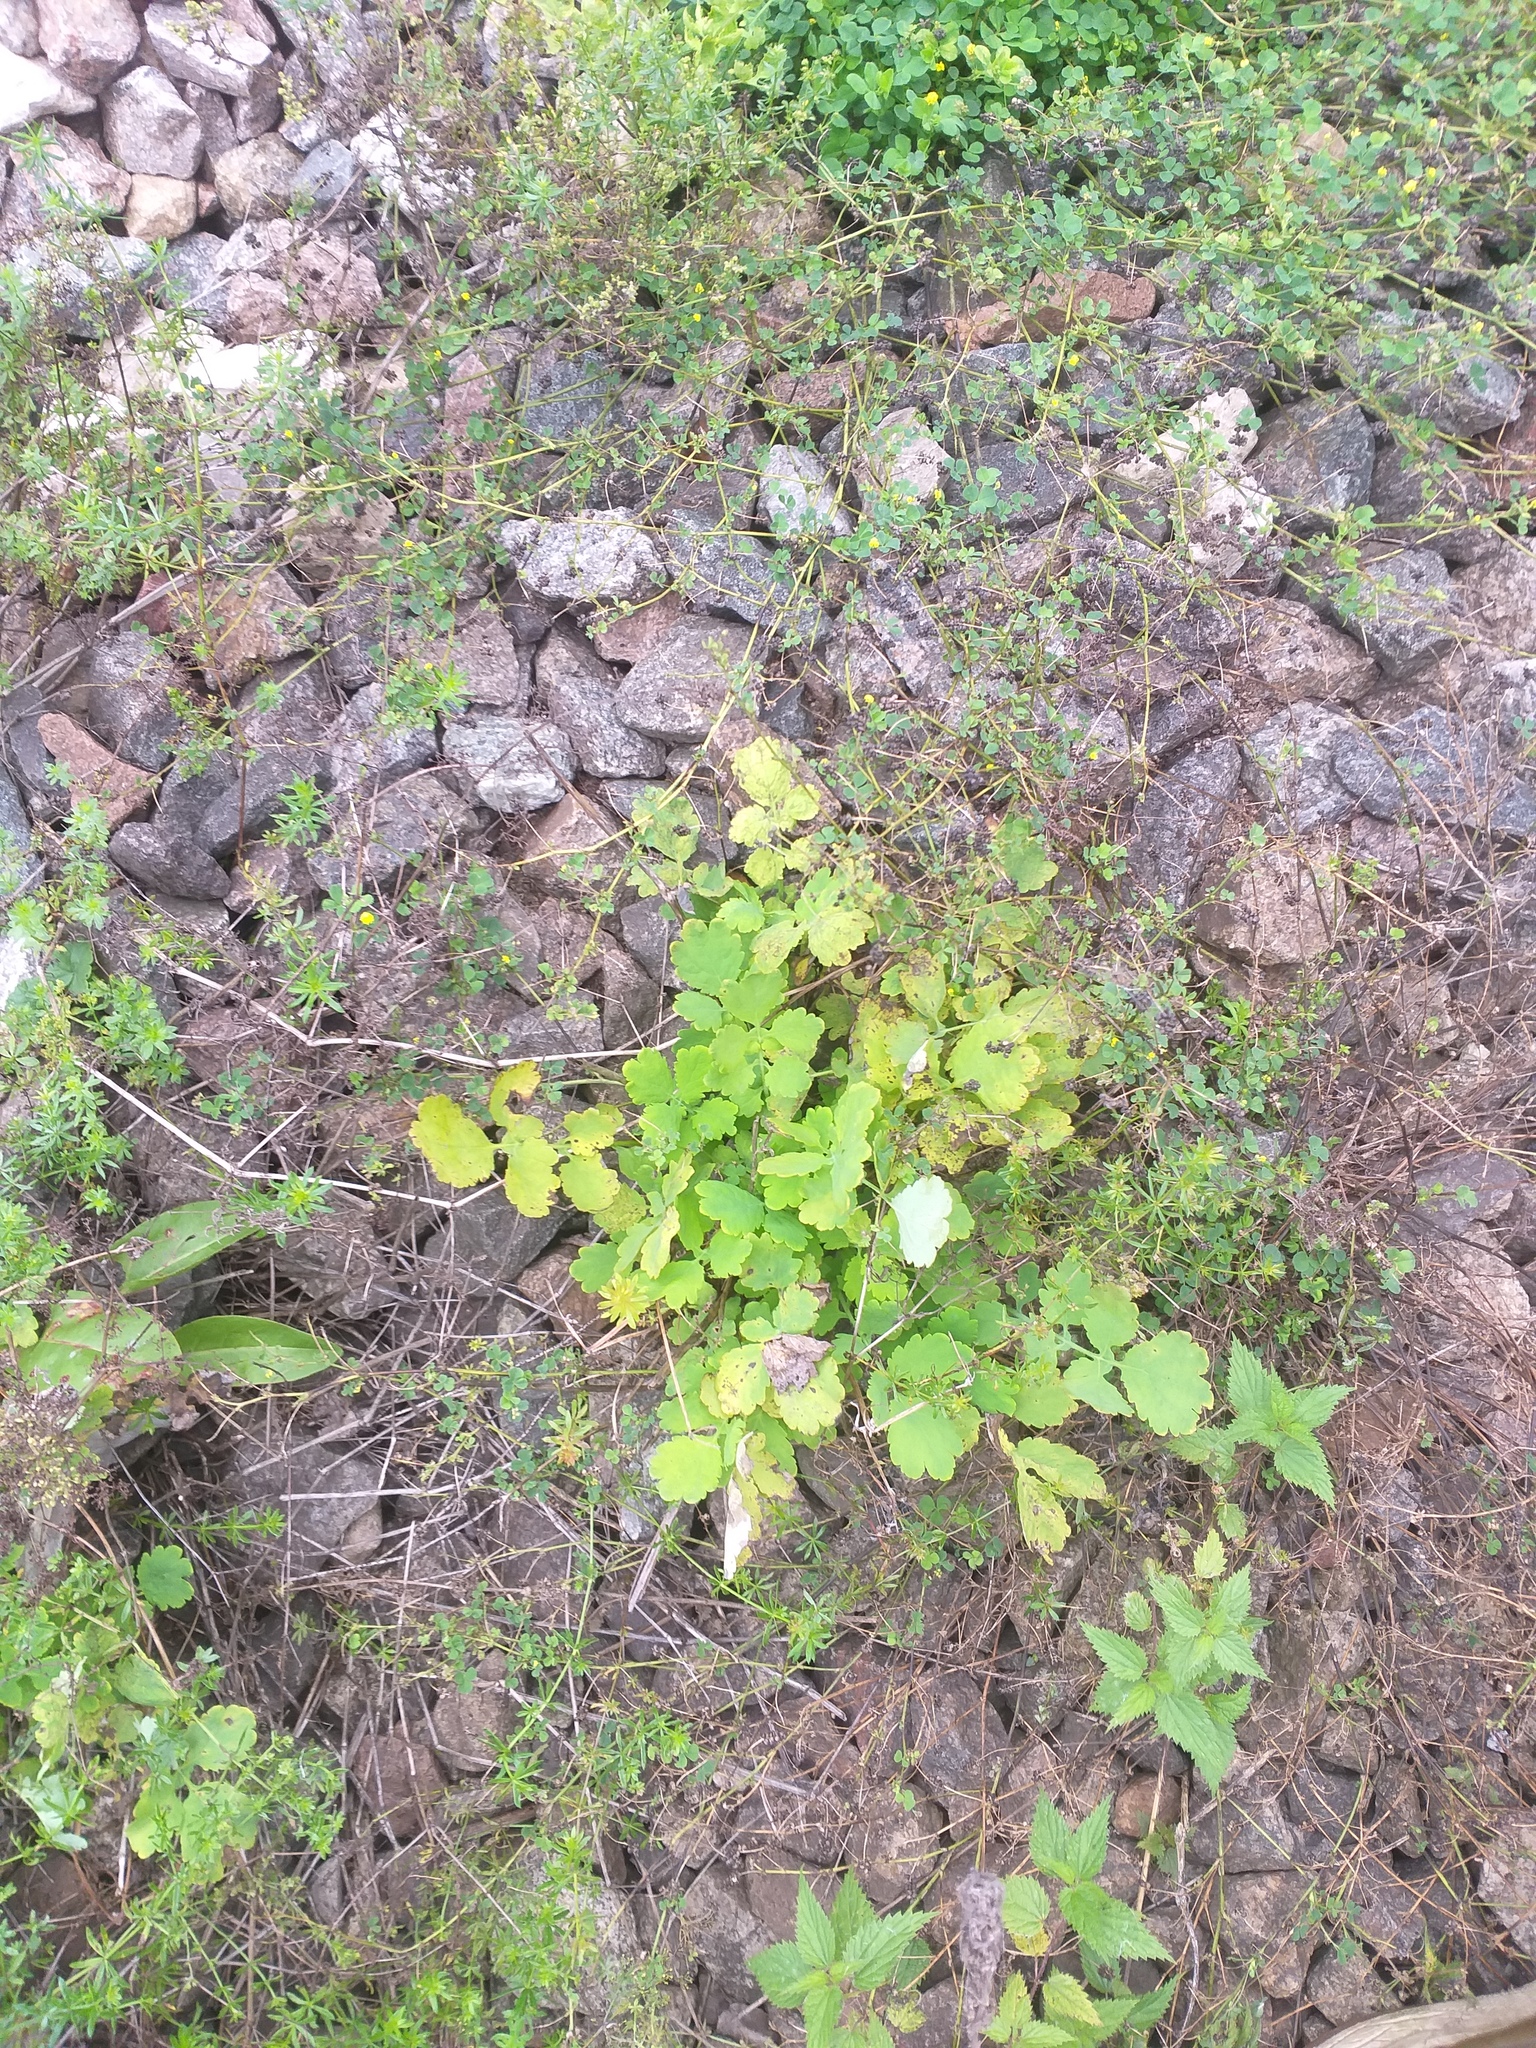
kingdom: Plantae
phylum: Tracheophyta
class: Magnoliopsida
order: Ranunculales
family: Papaveraceae
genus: Chelidonium
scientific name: Chelidonium majus
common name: Greater celandine
